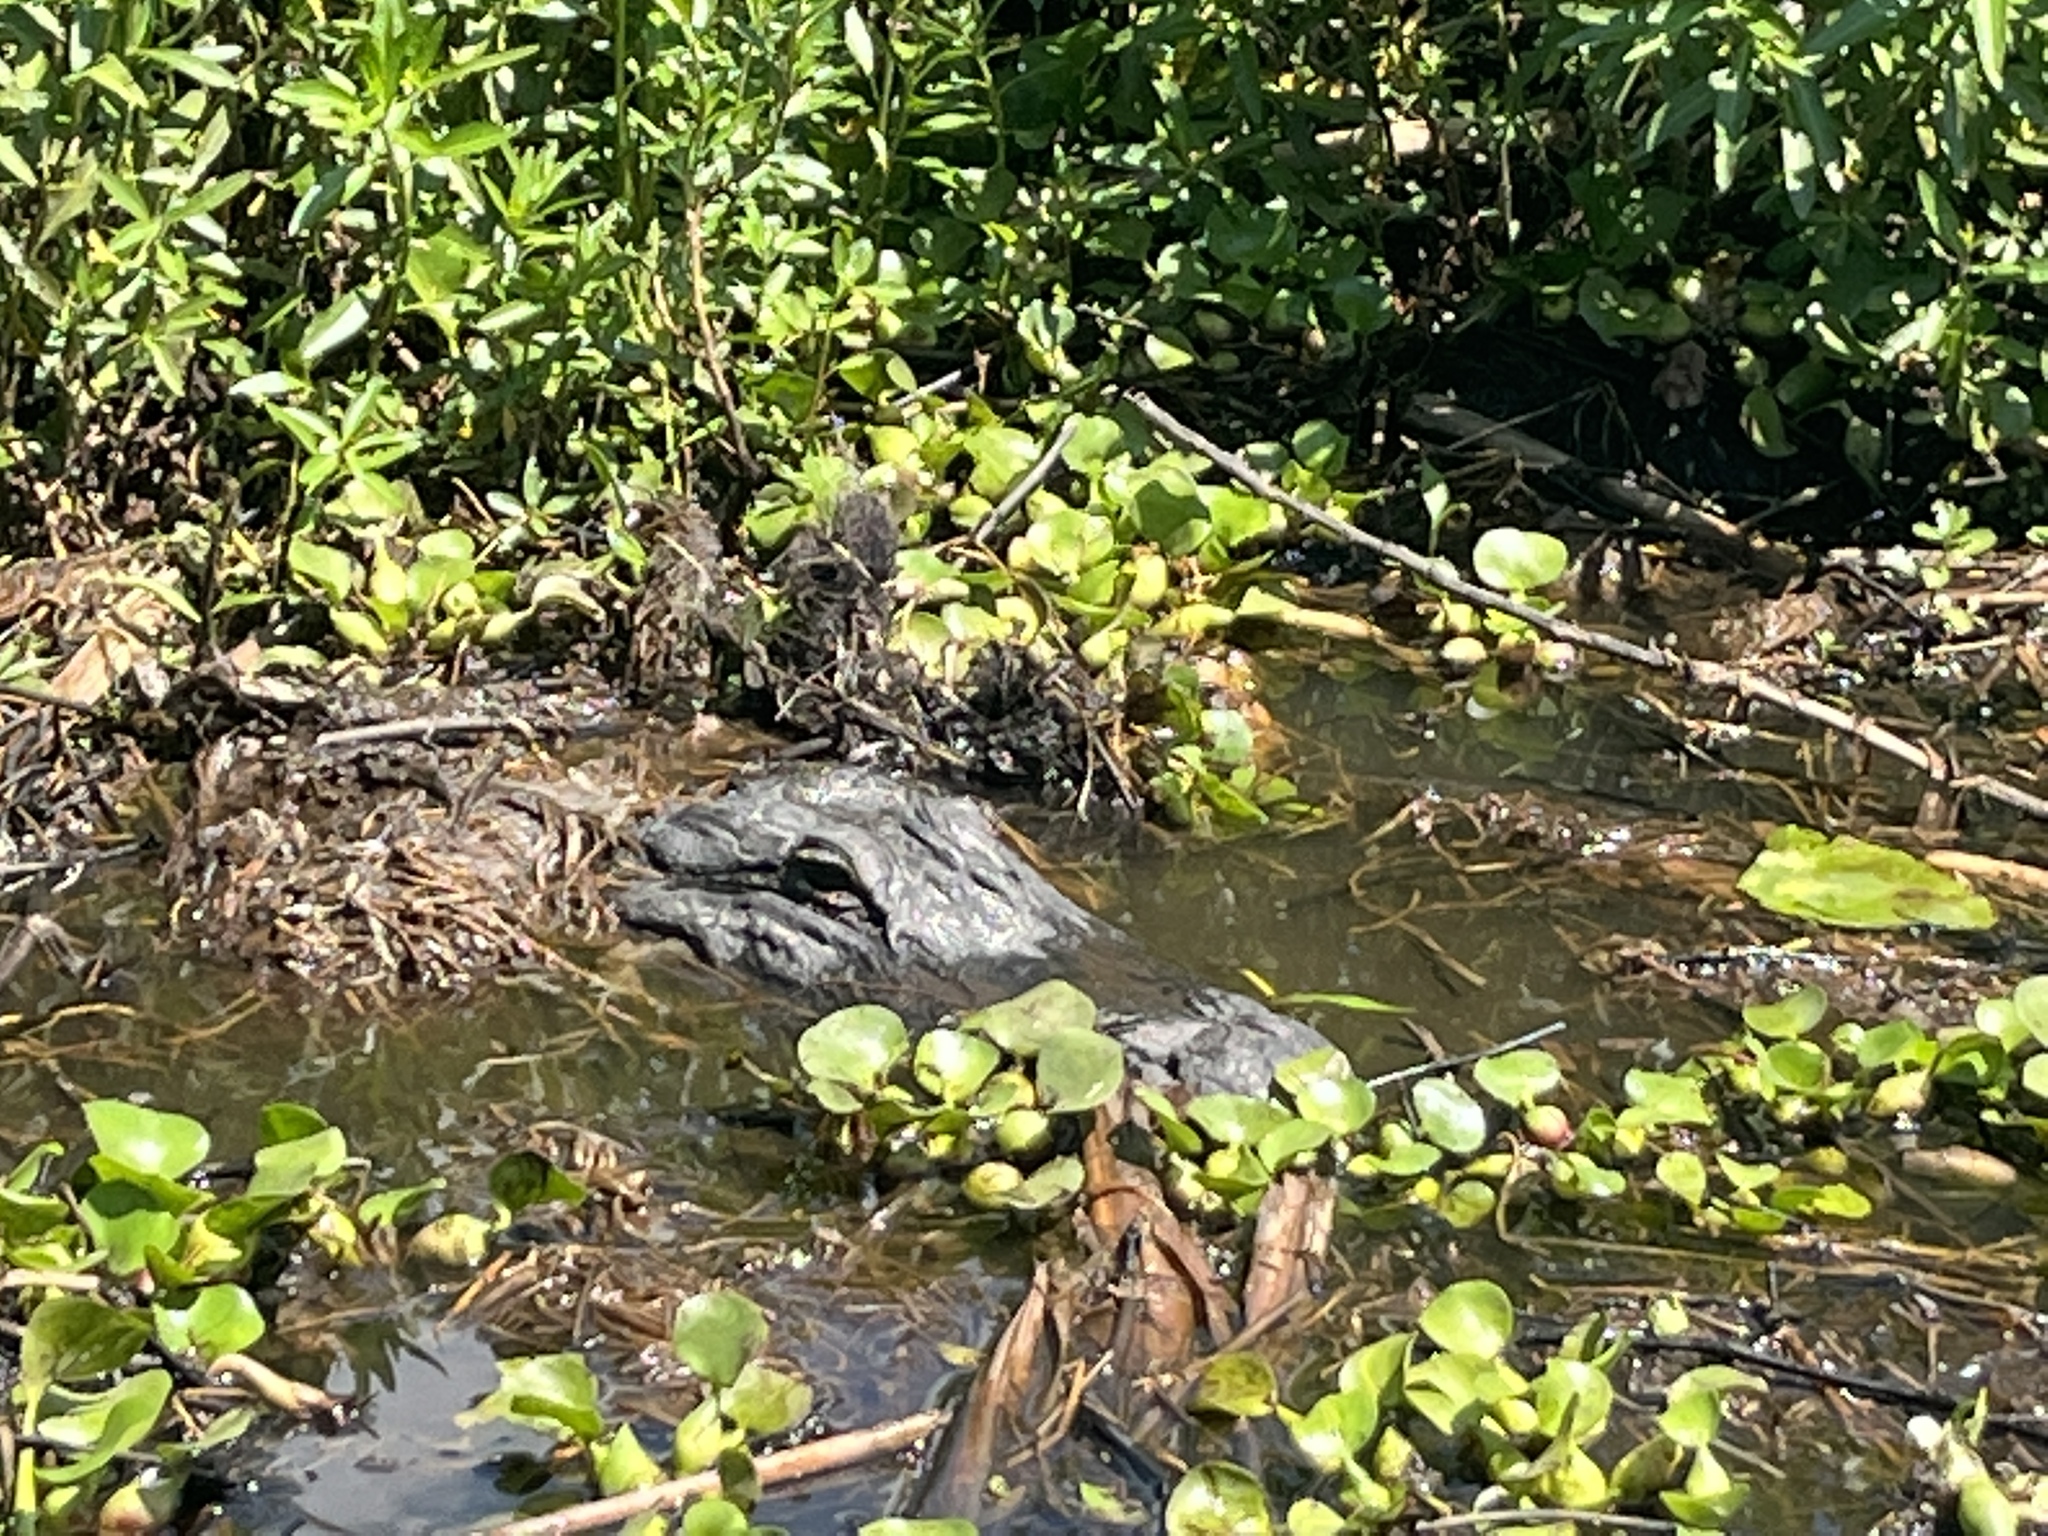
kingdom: Animalia
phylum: Chordata
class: Crocodylia
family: Alligatoridae
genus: Alligator
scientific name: Alligator mississippiensis
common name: American alligator
